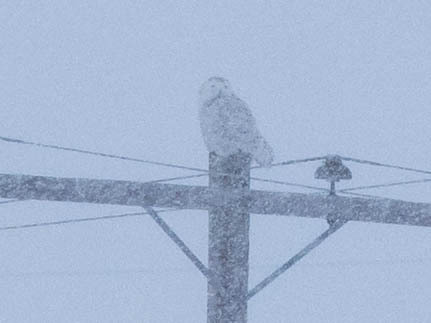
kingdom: Animalia
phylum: Chordata
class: Aves
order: Strigiformes
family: Strigidae
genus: Bubo
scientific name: Bubo scandiacus
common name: Snowy owl
